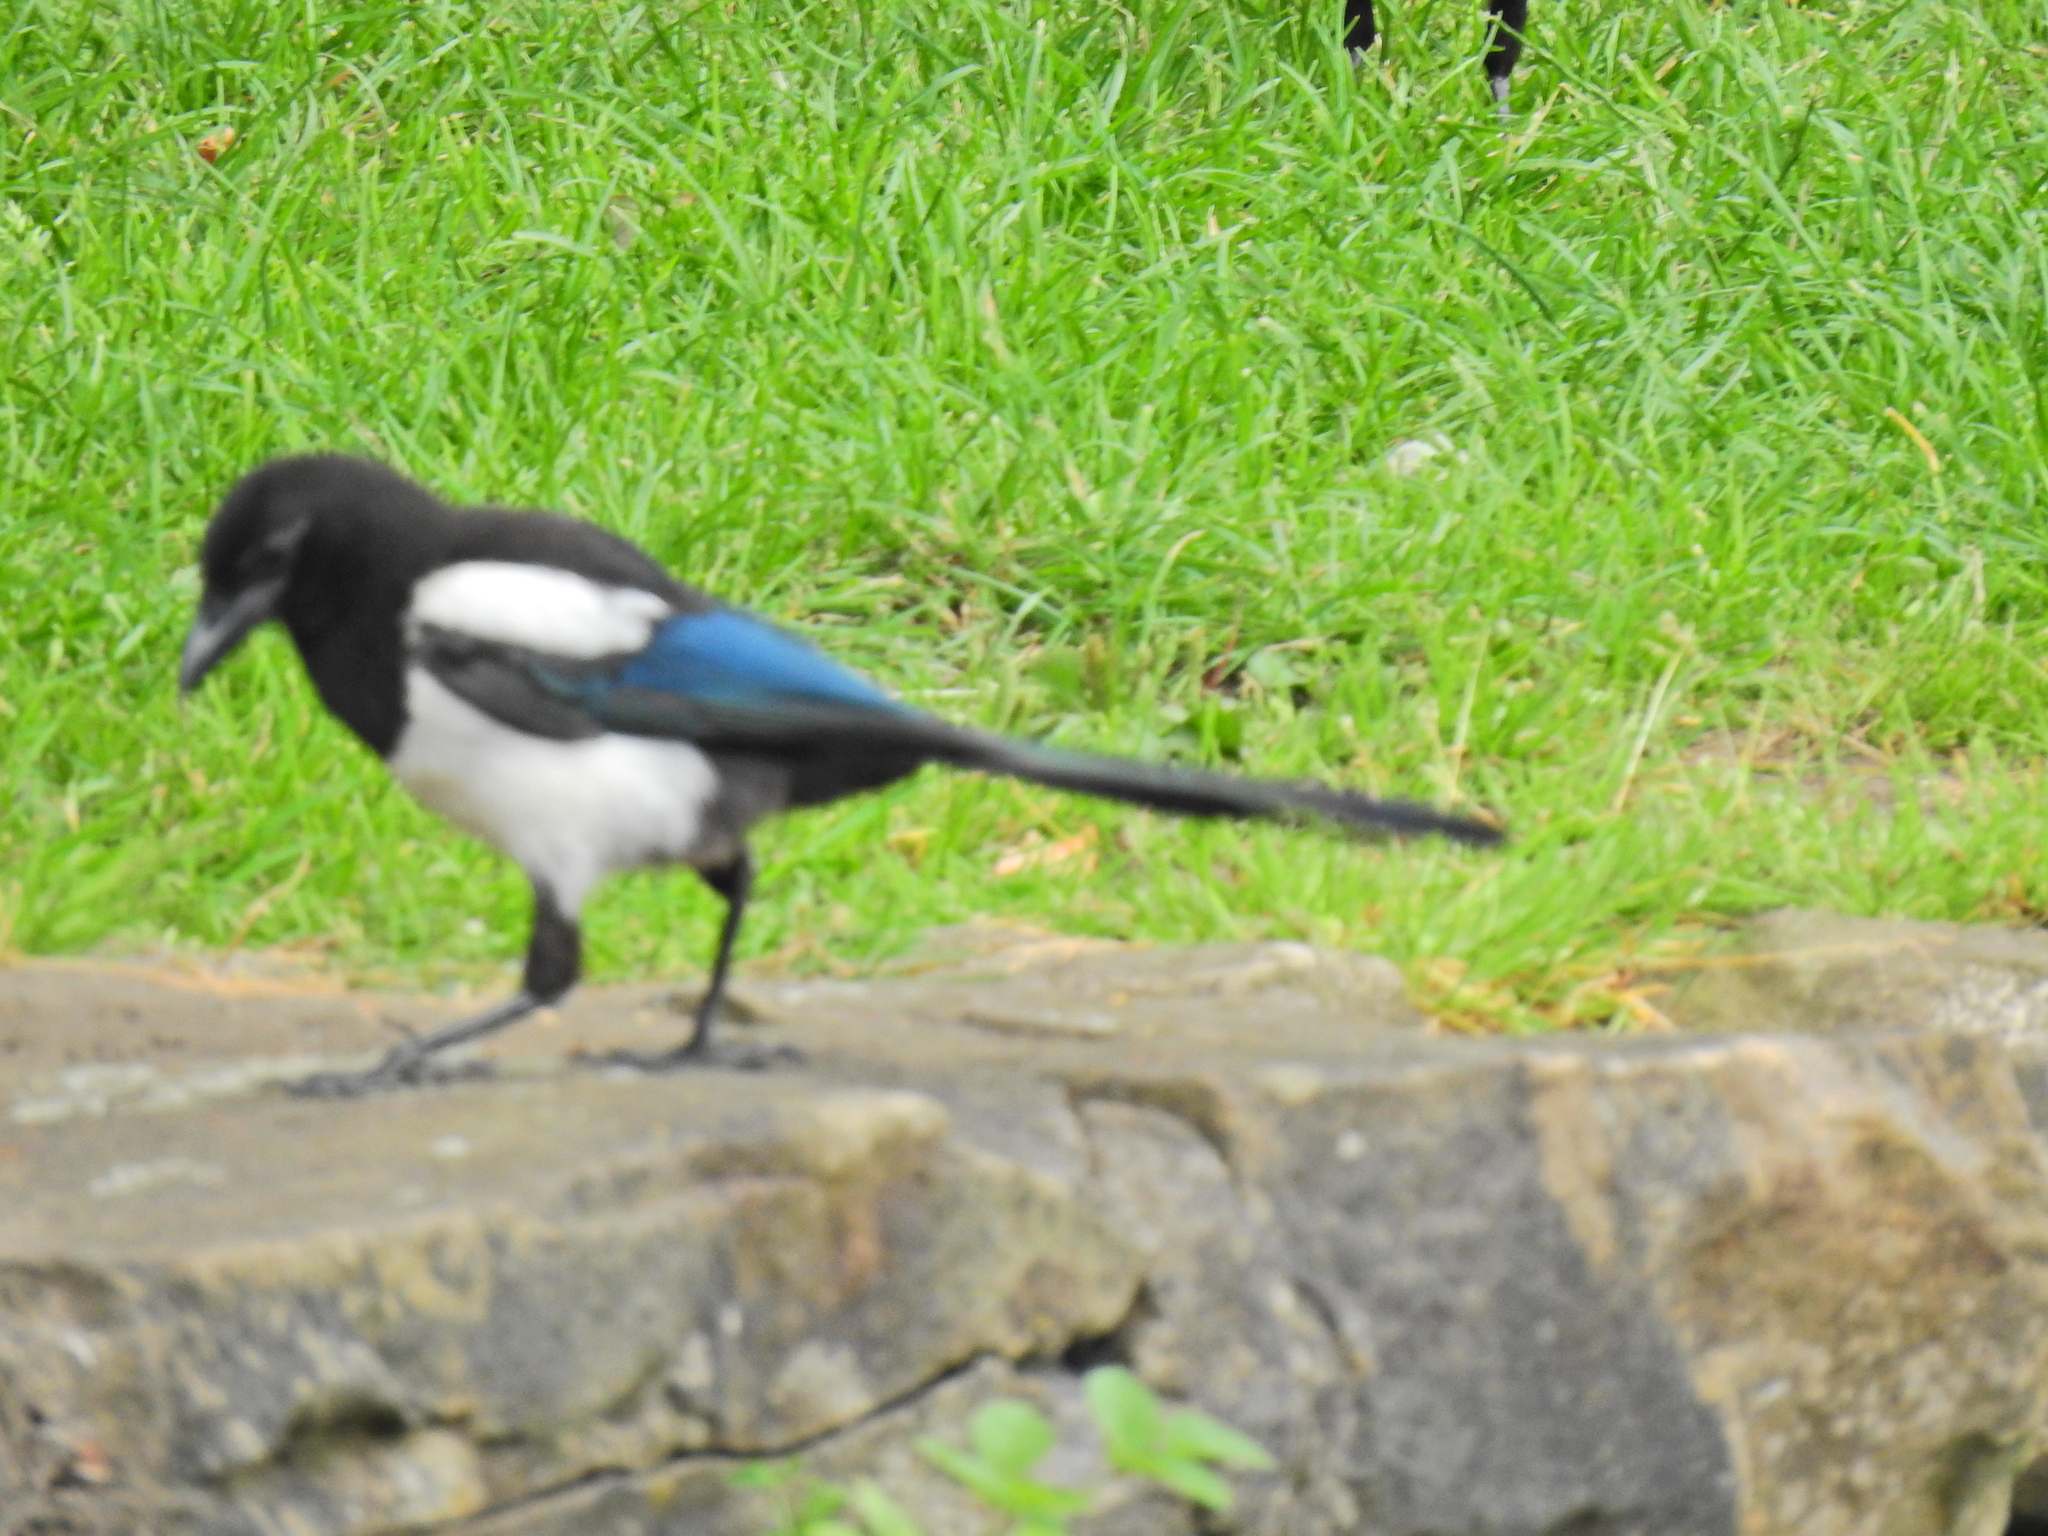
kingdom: Animalia
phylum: Chordata
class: Aves
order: Passeriformes
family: Corvidae
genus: Pica
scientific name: Pica pica
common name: Eurasian magpie
